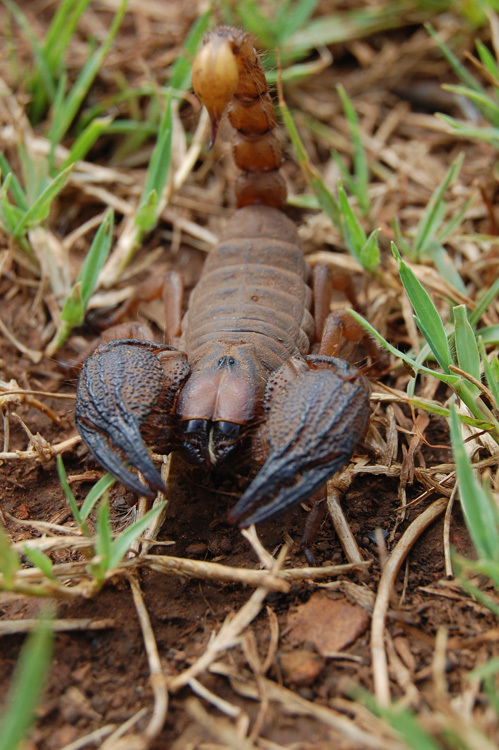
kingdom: Animalia
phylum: Arthropoda
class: Arachnida
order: Scorpiones
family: Scorpionidae
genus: Opistophthalmus
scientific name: Opistophthalmus pugnax
